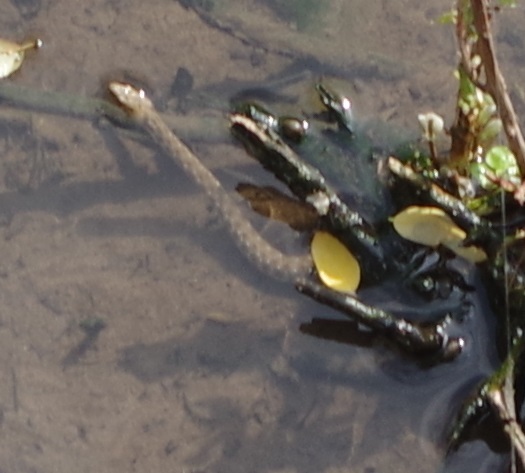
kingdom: Animalia
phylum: Chordata
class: Squamata
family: Colubridae
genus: Natrix
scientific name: Natrix tessellata
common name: Dice snake
